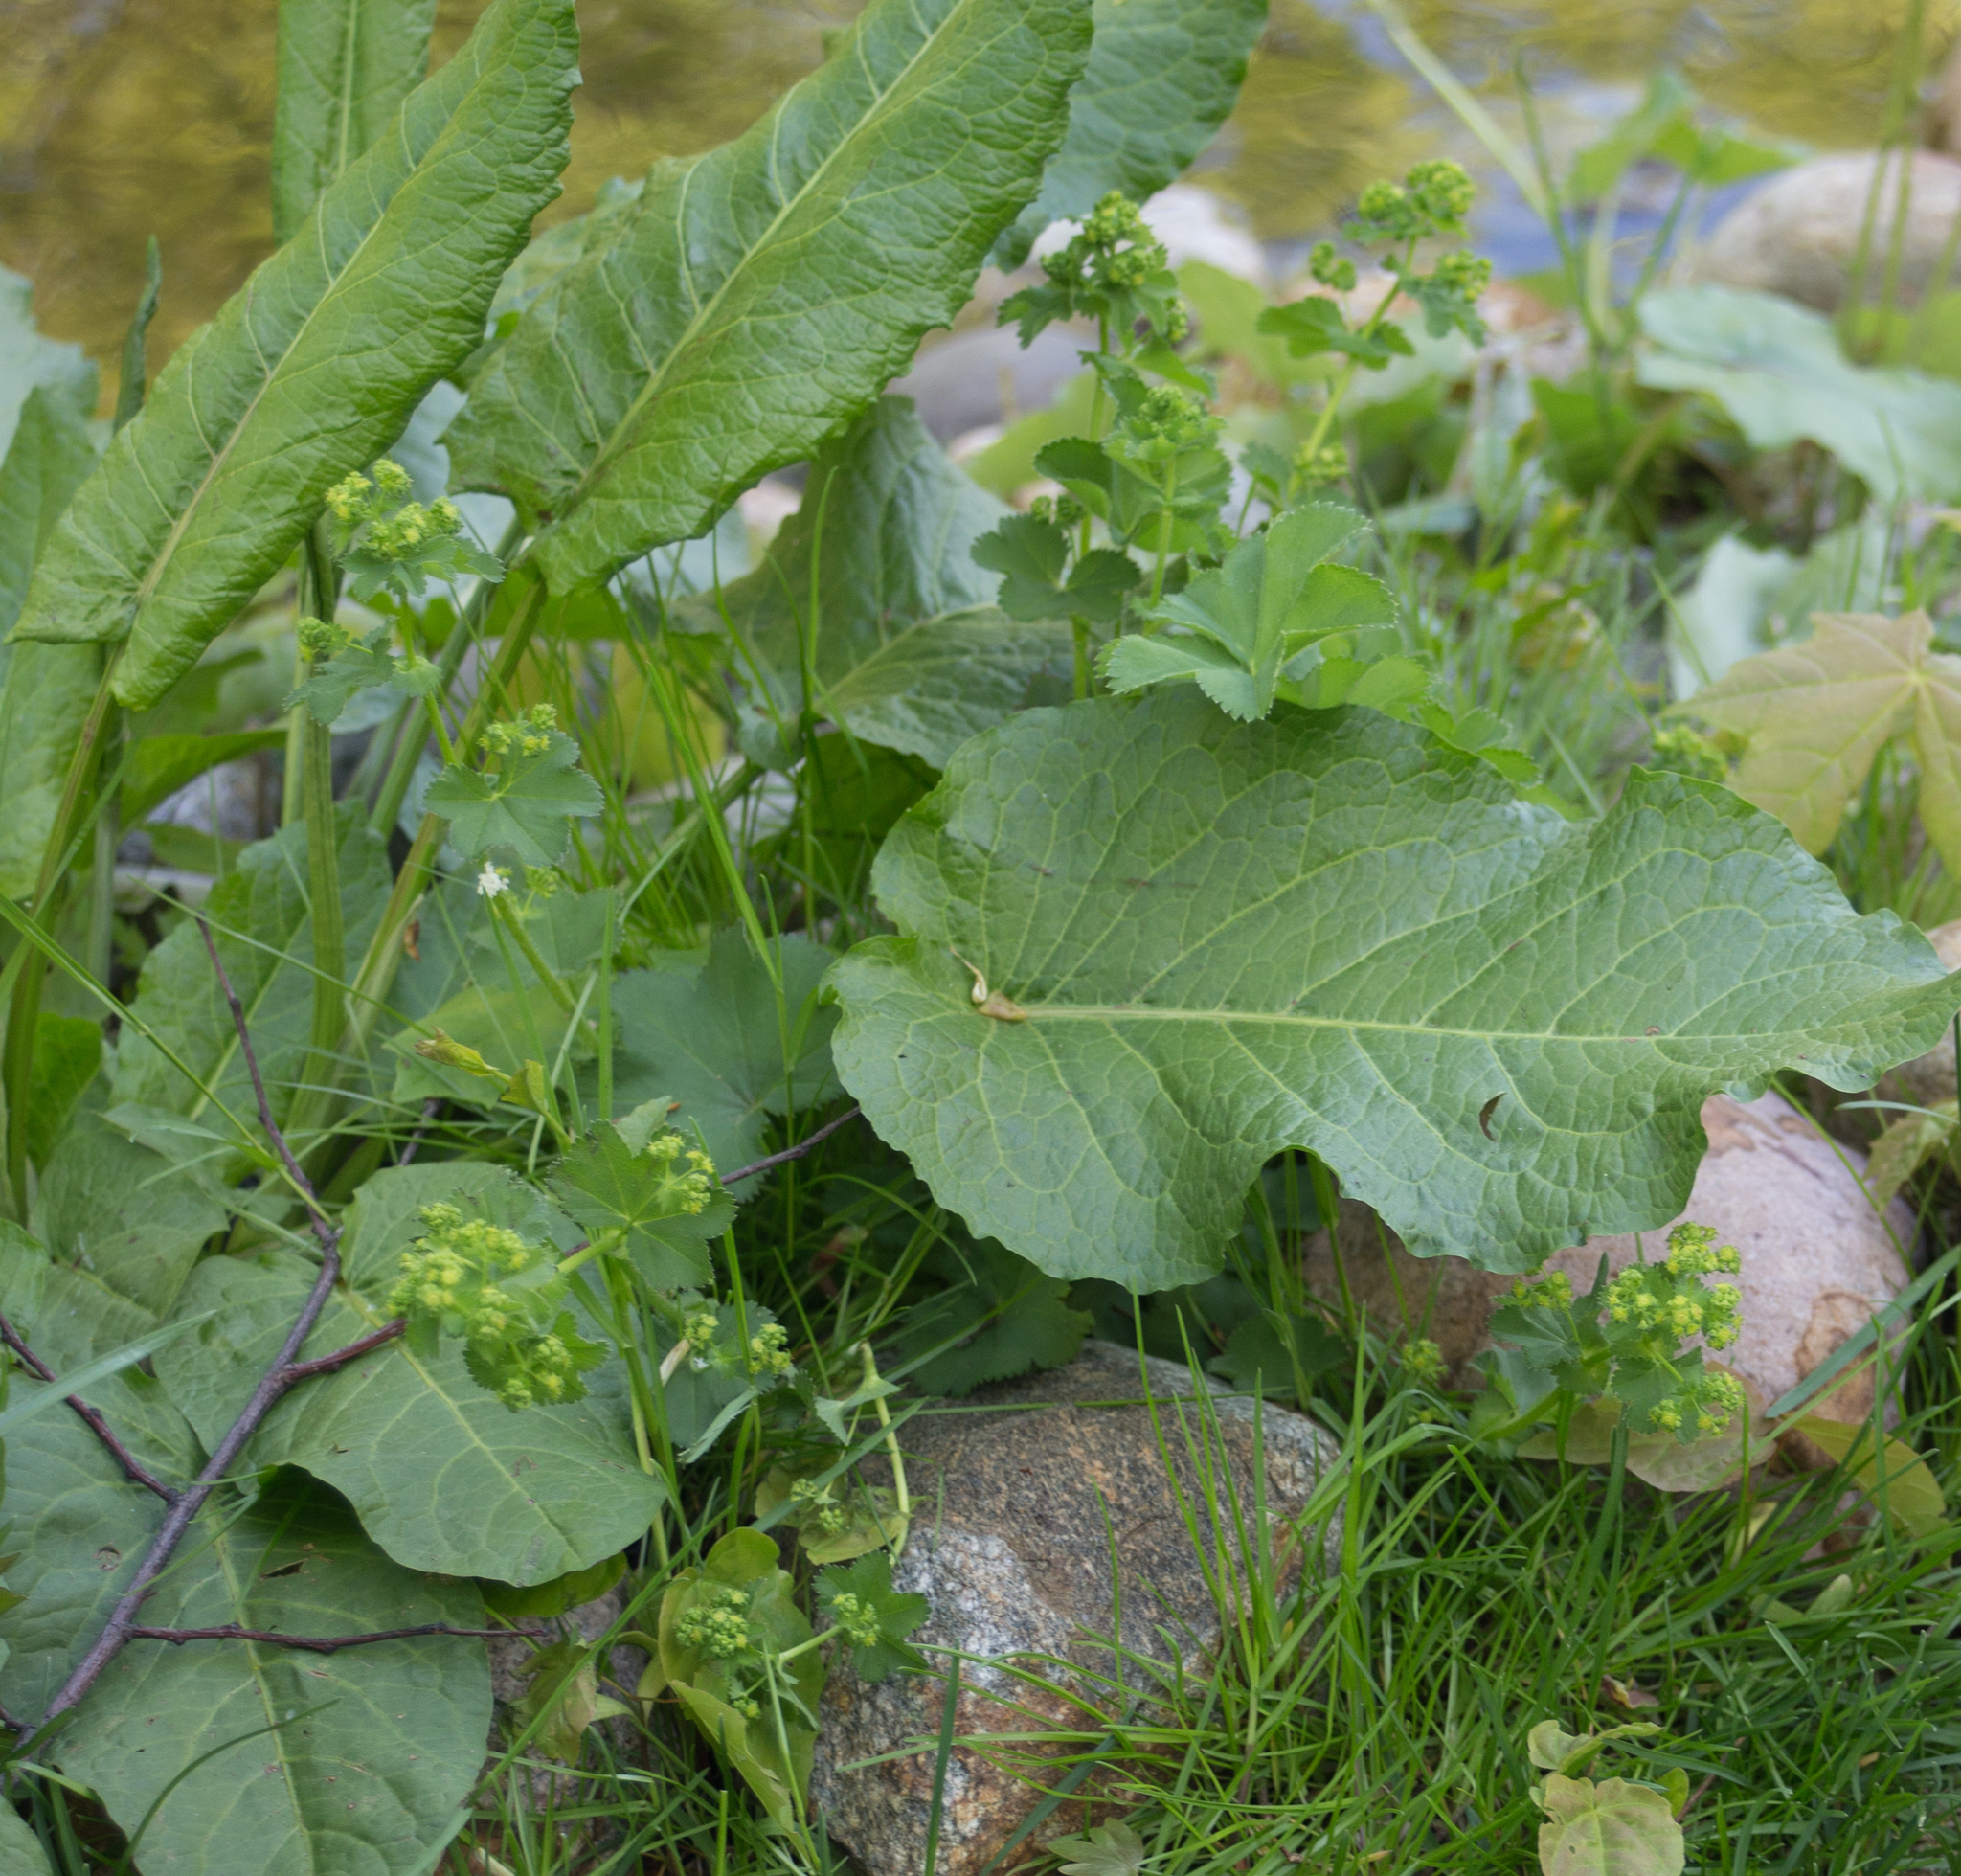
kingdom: Plantae
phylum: Tracheophyta
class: Magnoliopsida
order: Caryophyllales
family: Polygonaceae
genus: Rumex
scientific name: Rumex obtusifolius
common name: Bitter dock
